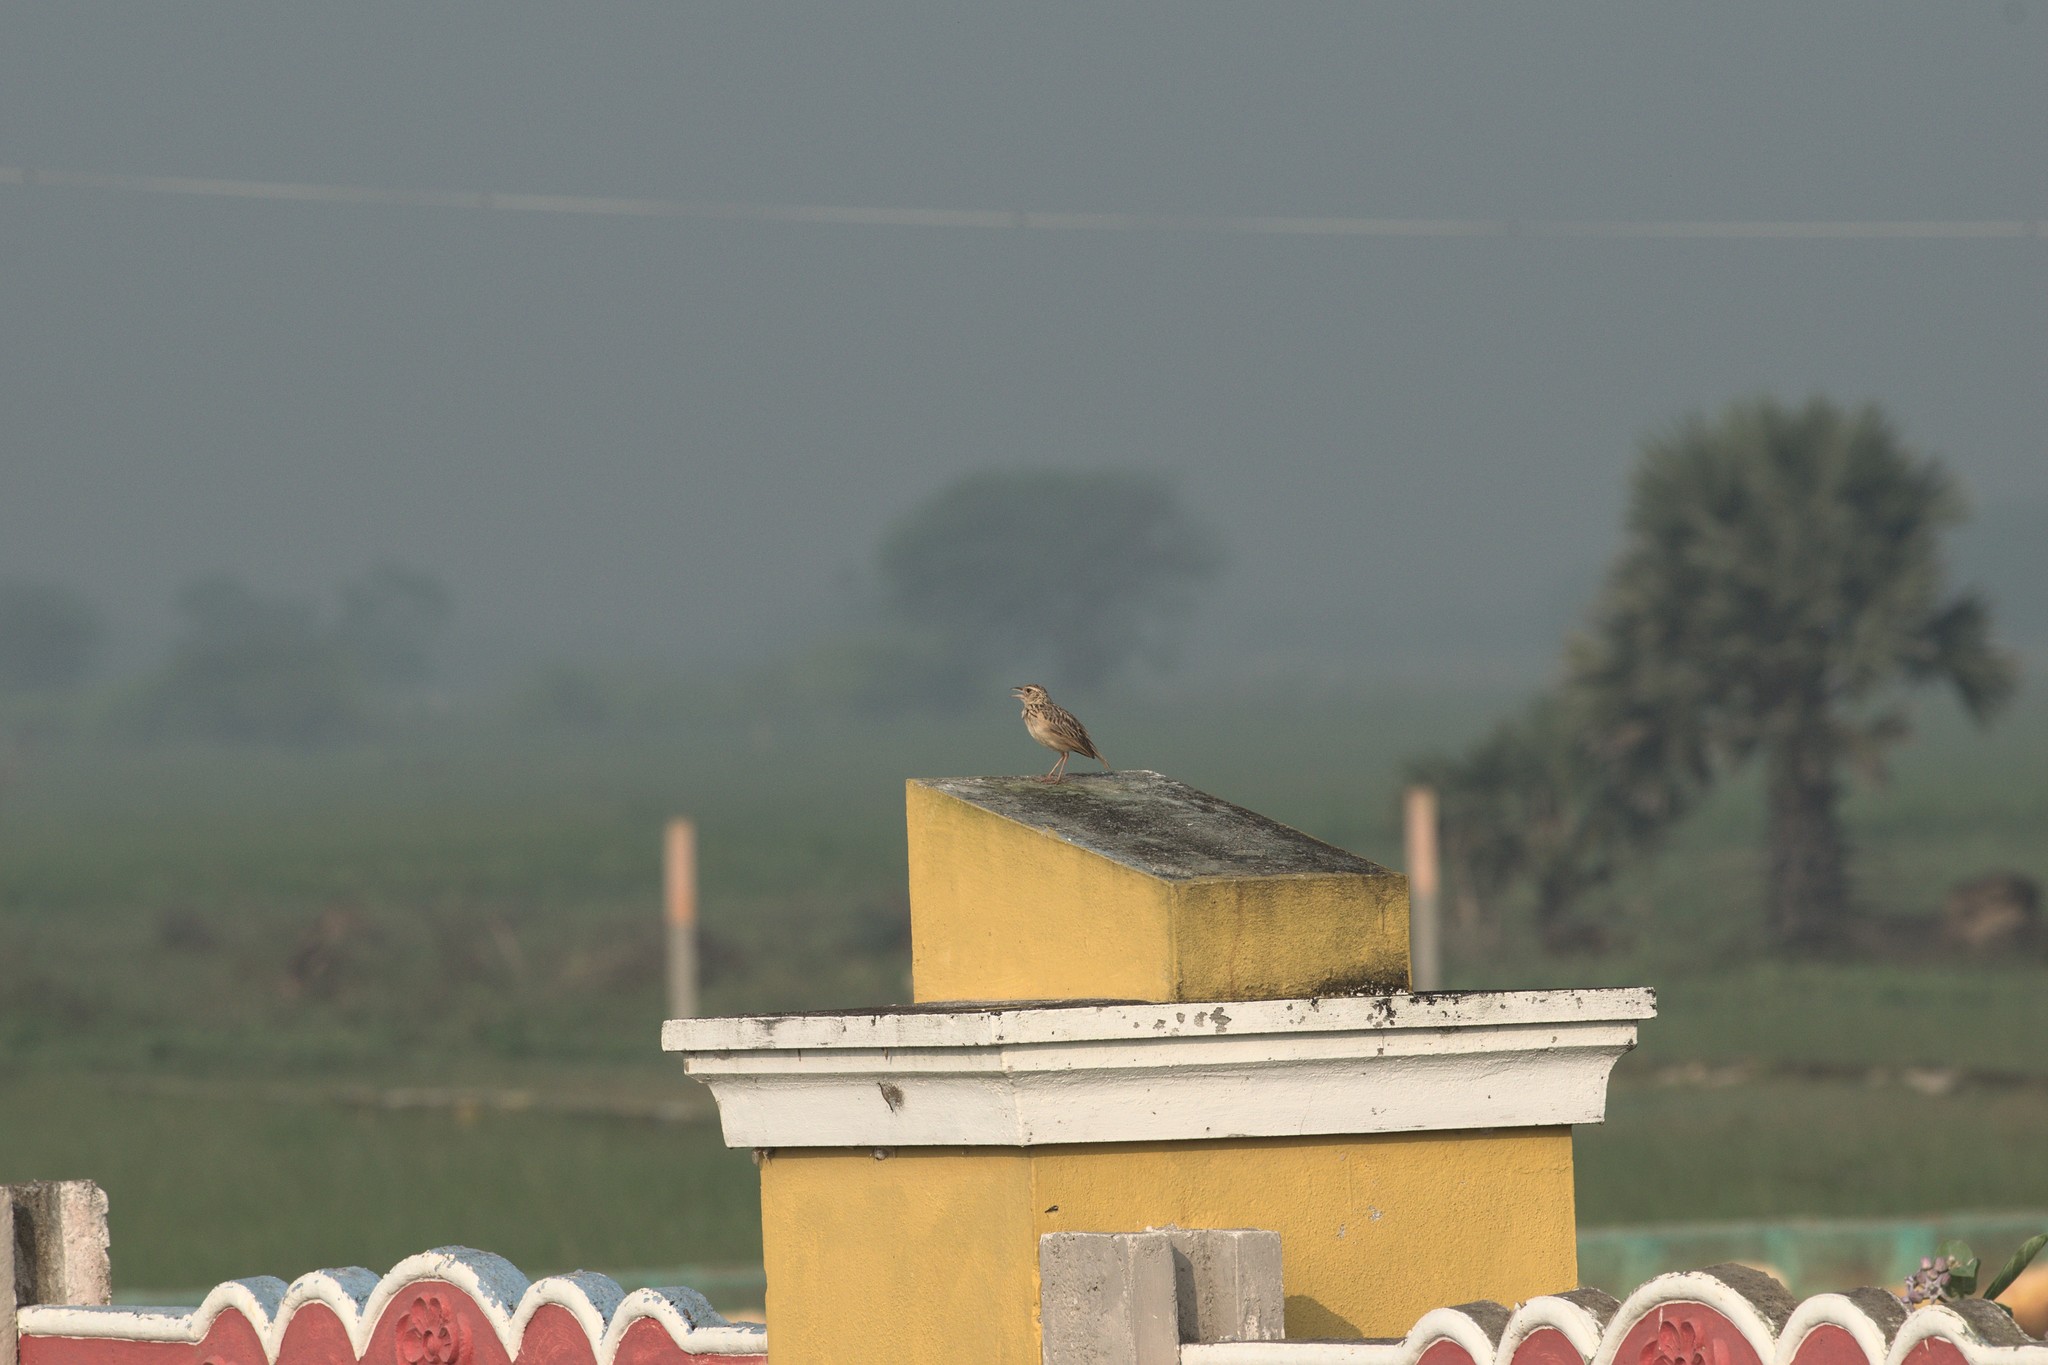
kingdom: Animalia
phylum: Chordata
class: Aves
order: Passeriformes
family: Alaudidae
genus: Mirafra
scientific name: Mirafra affinis
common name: Jerdon's bushlark
